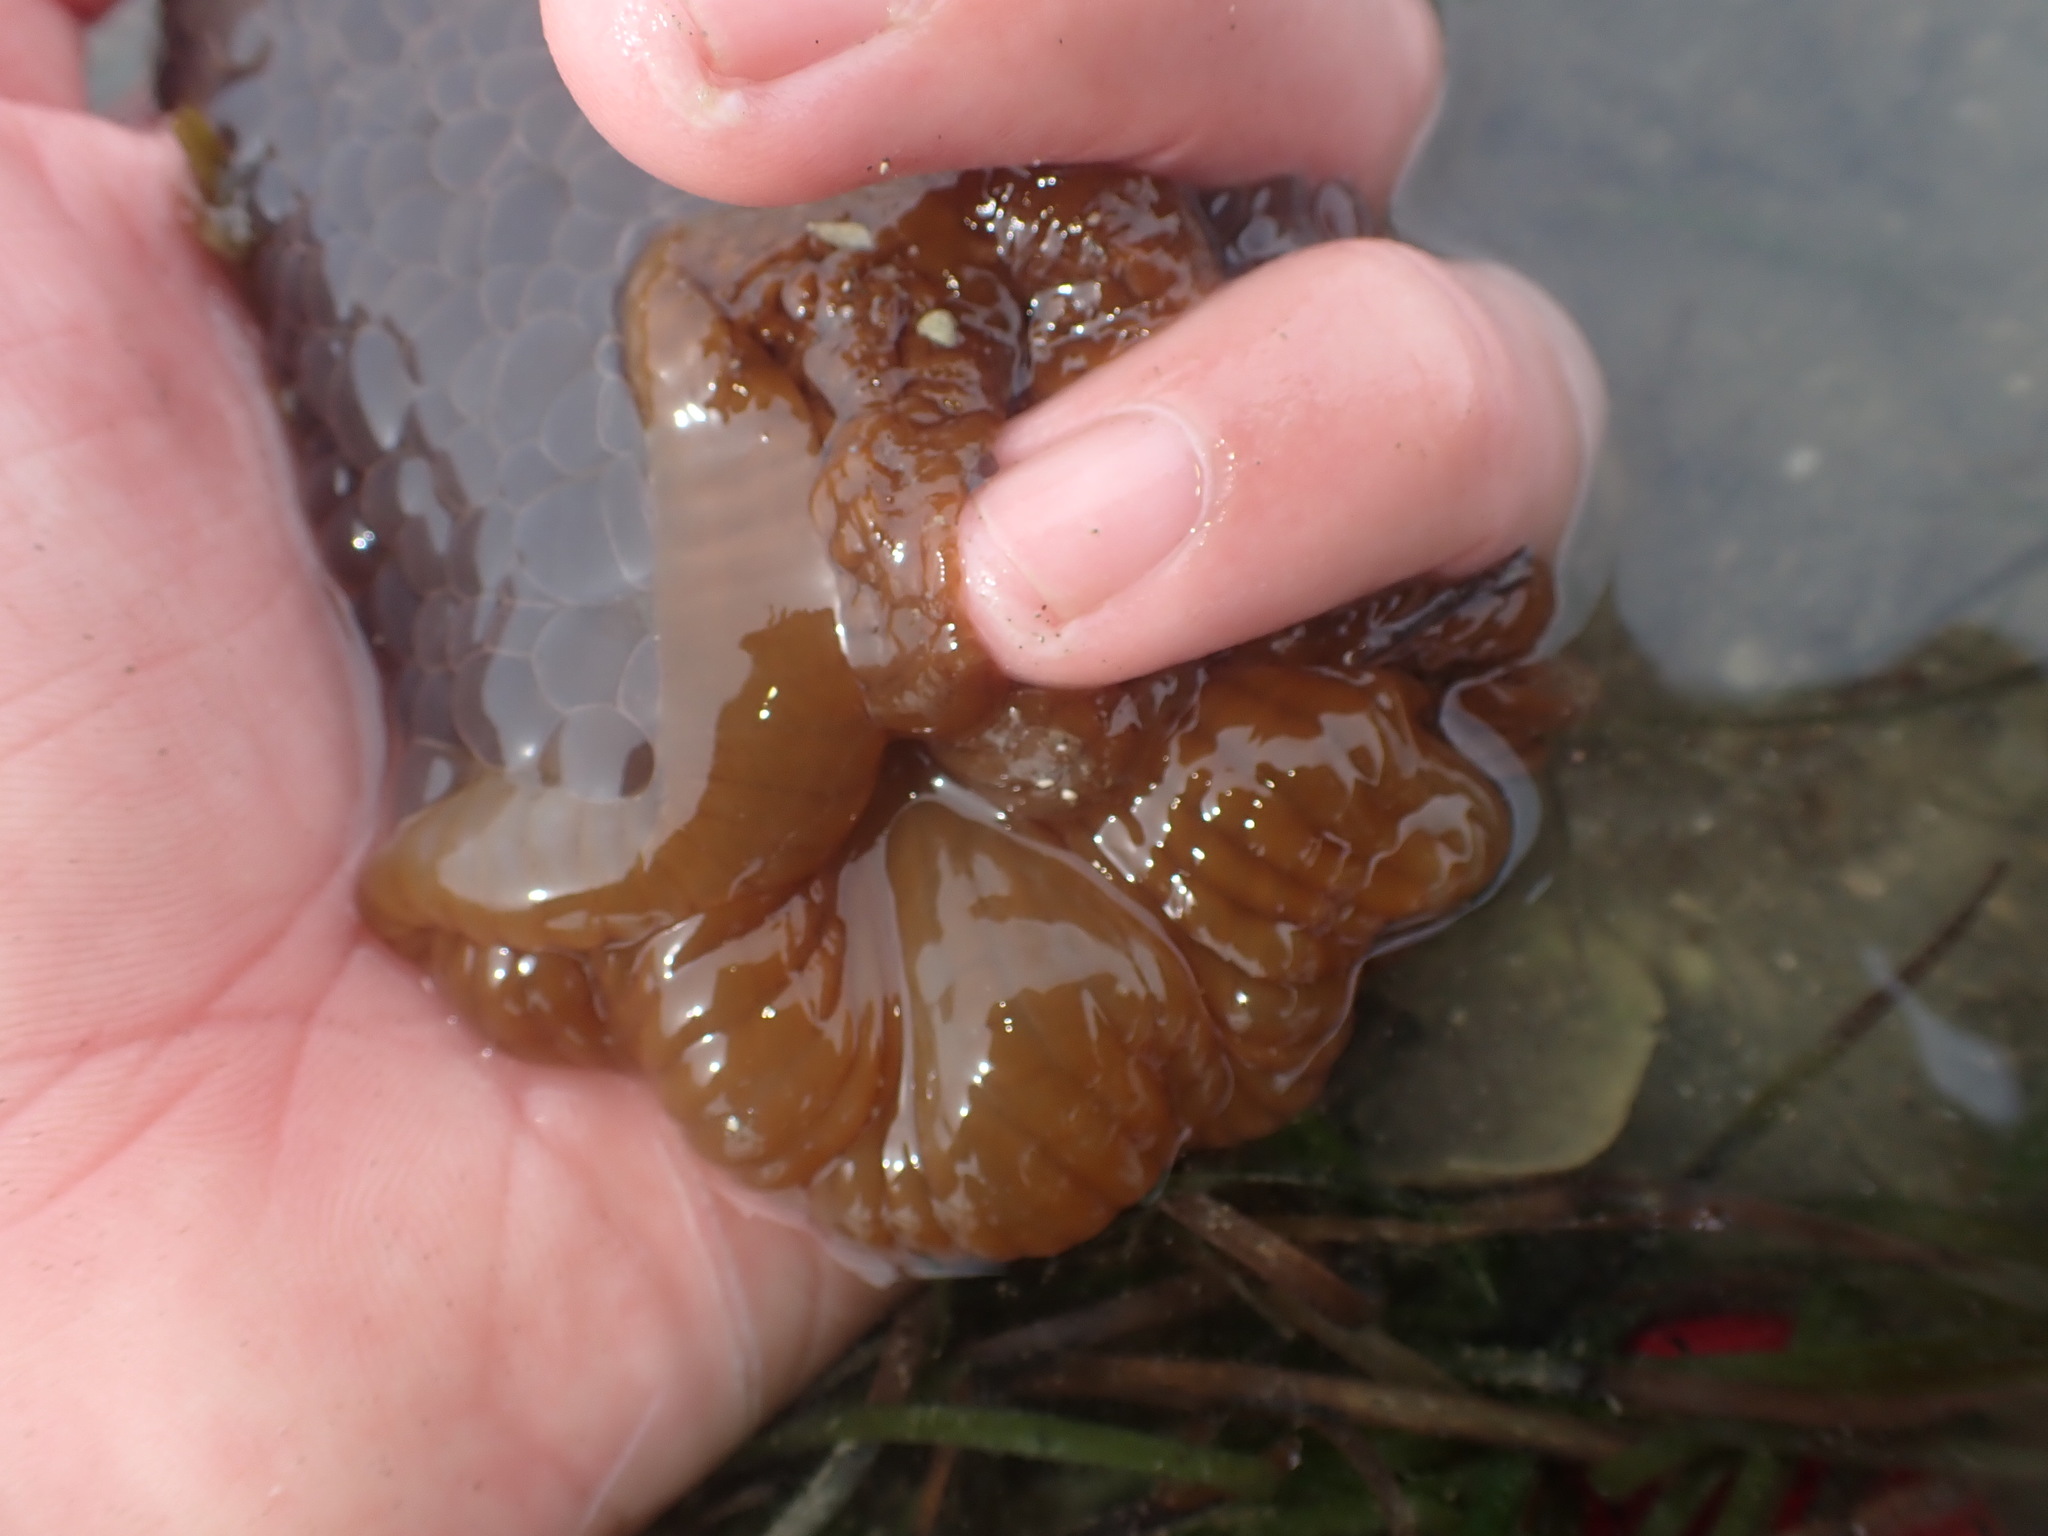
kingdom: Animalia
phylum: Cnidaria
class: Anthozoa
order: Actiniaria
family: Actiniidae
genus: Phlyctenactis
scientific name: Phlyctenactis tuberculosa
